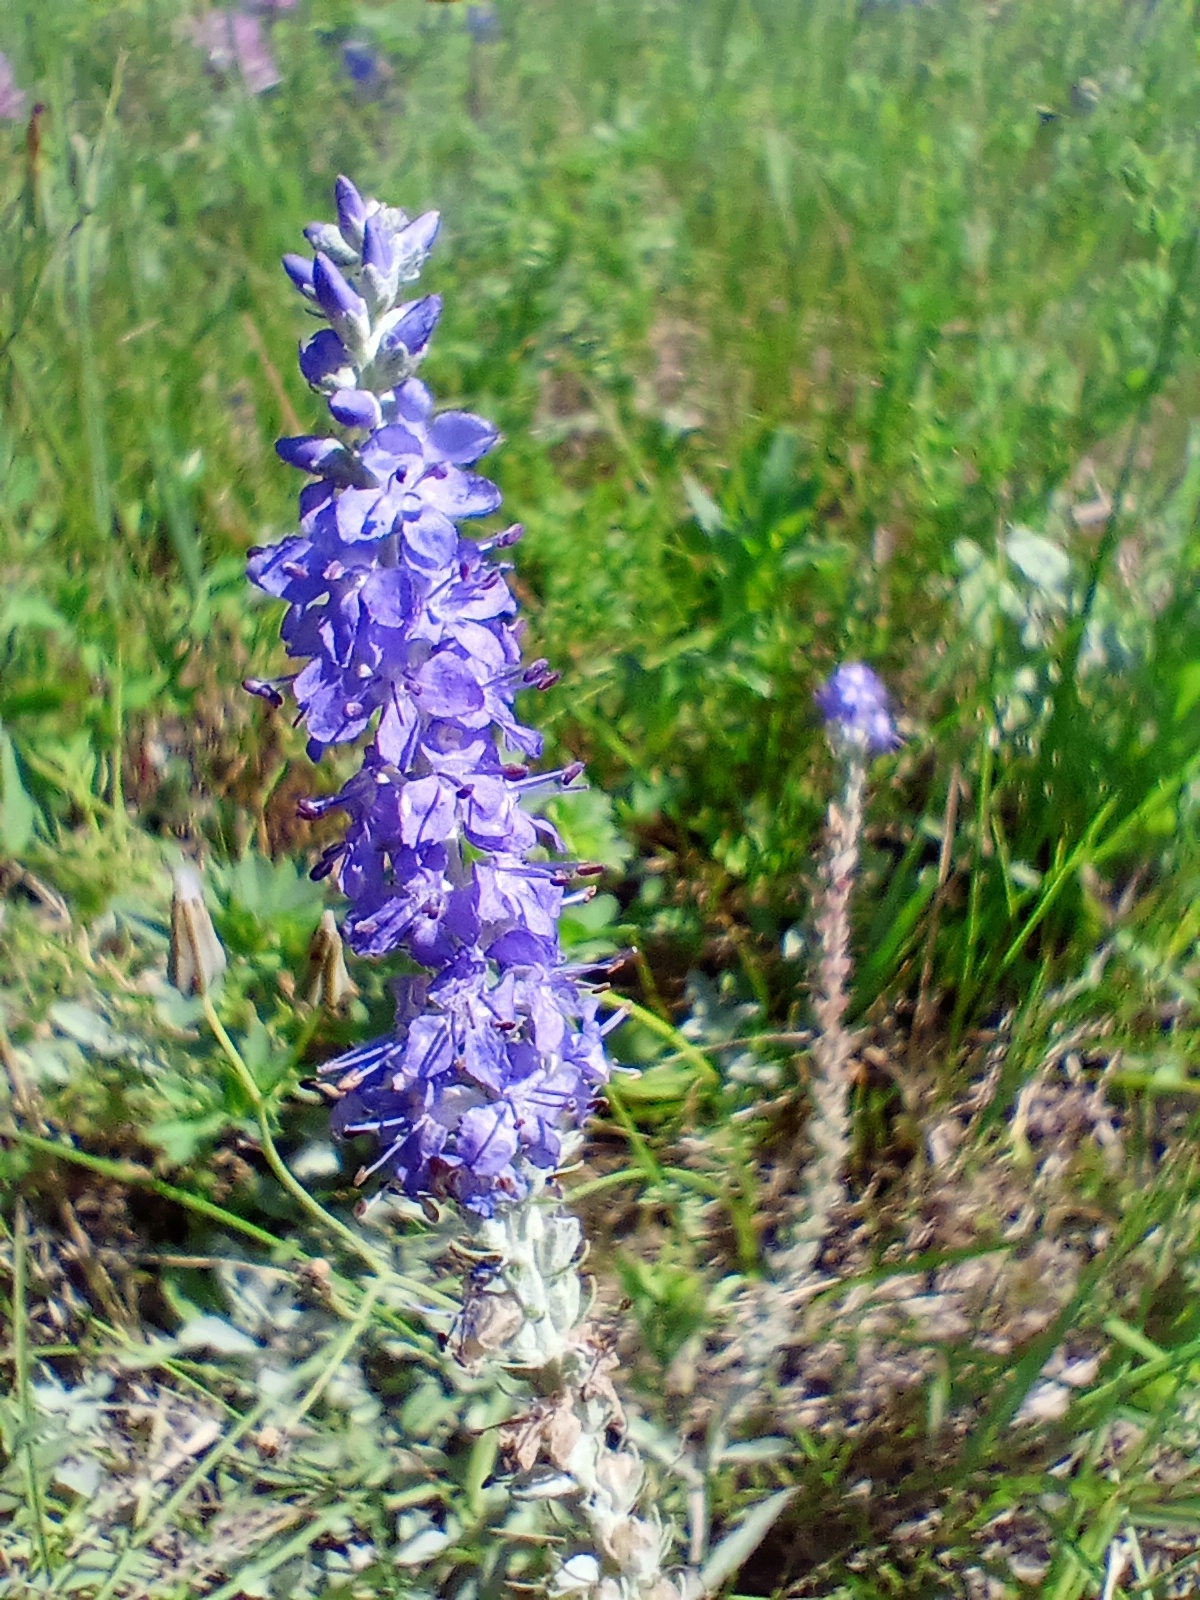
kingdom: Plantae
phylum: Tracheophyta
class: Magnoliopsida
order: Lamiales
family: Plantaginaceae
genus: Veronica
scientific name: Veronica incana
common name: Silver speedwell
